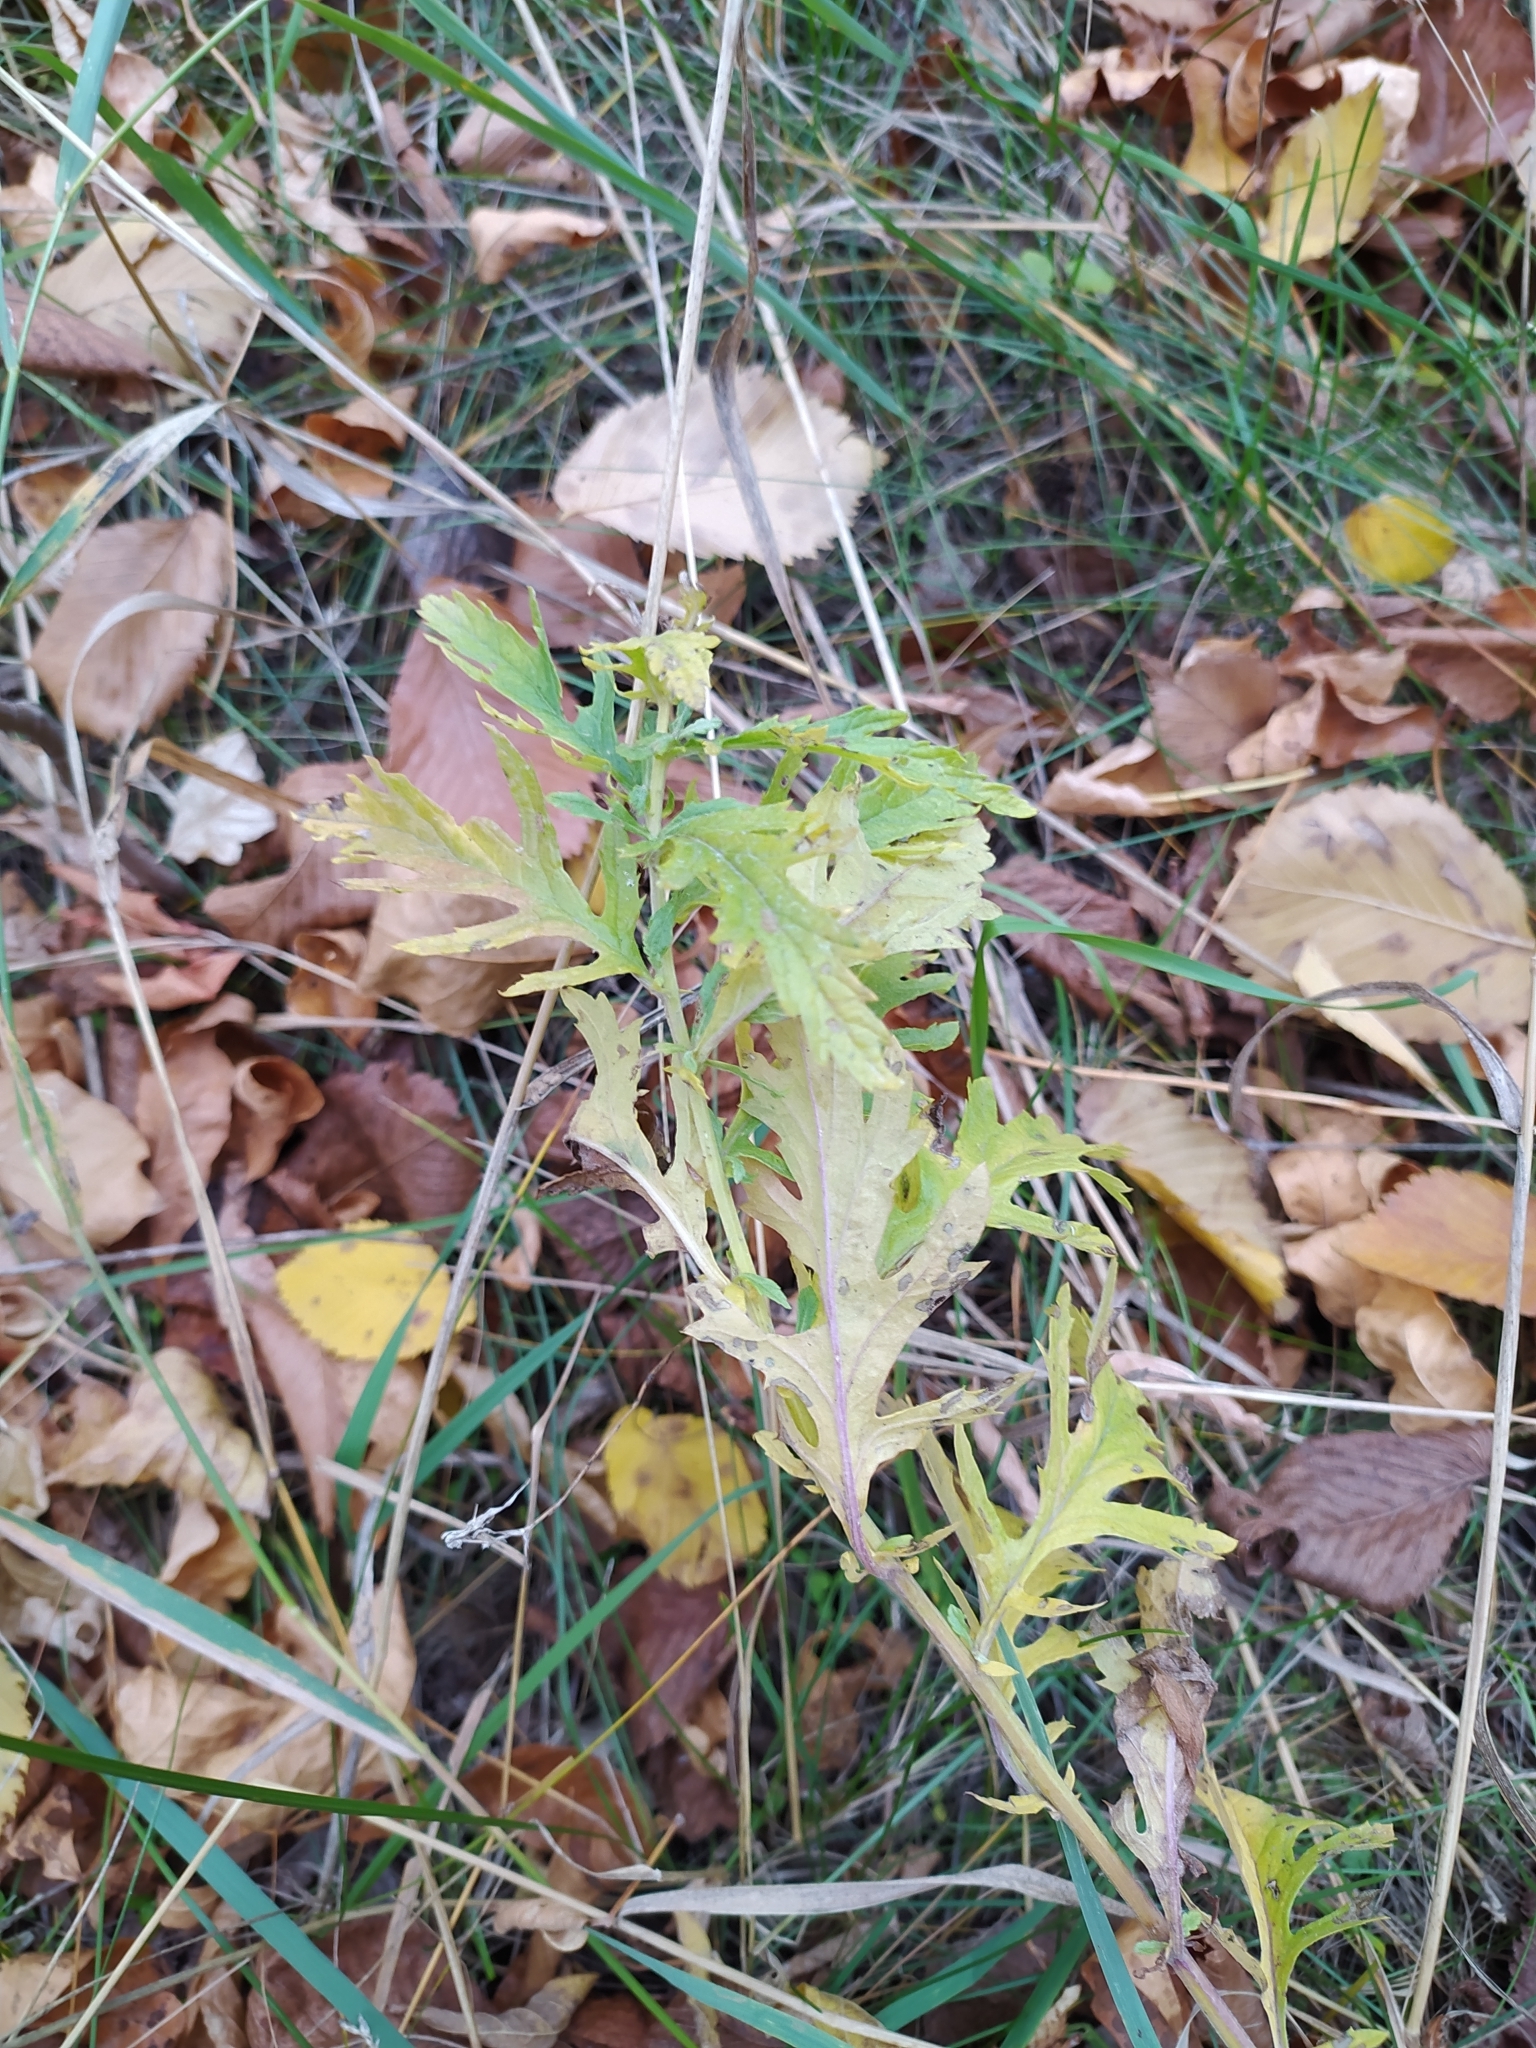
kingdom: Plantae
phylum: Tracheophyta
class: Magnoliopsida
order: Lamiales
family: Lamiaceae
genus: Lycopus
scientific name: Lycopus europaeus
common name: European bugleweed
